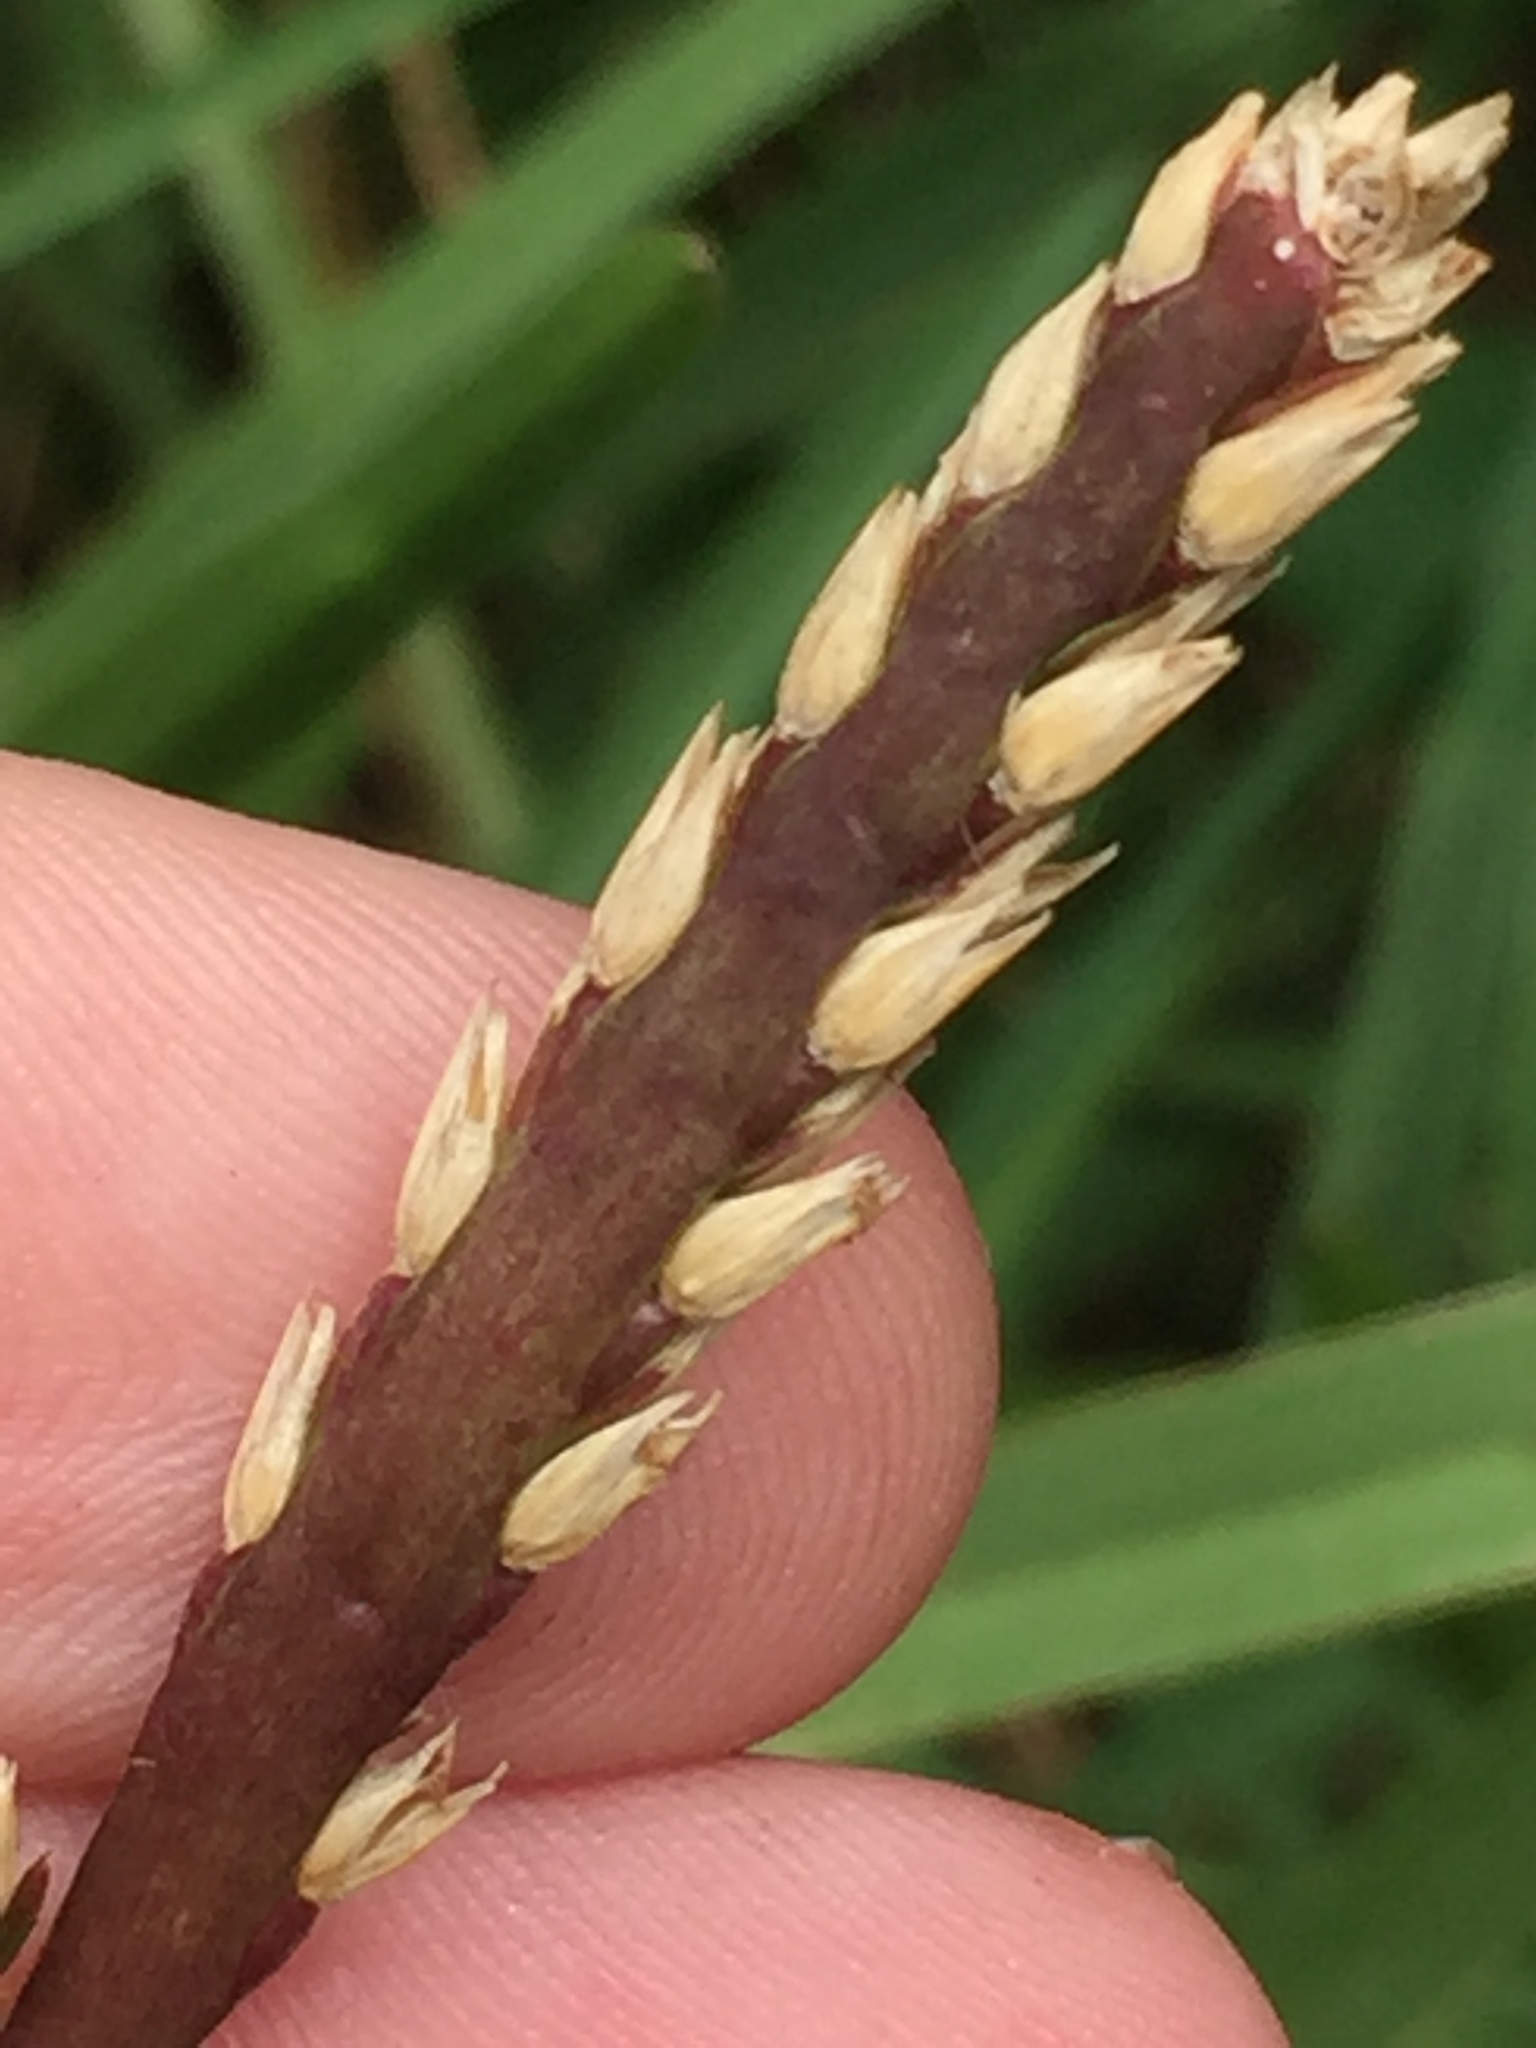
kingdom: Plantae
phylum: Tracheophyta
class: Liliopsida
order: Poales
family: Poaceae
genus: Stenotaphrum
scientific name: Stenotaphrum secundatum
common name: St. augustine grass
